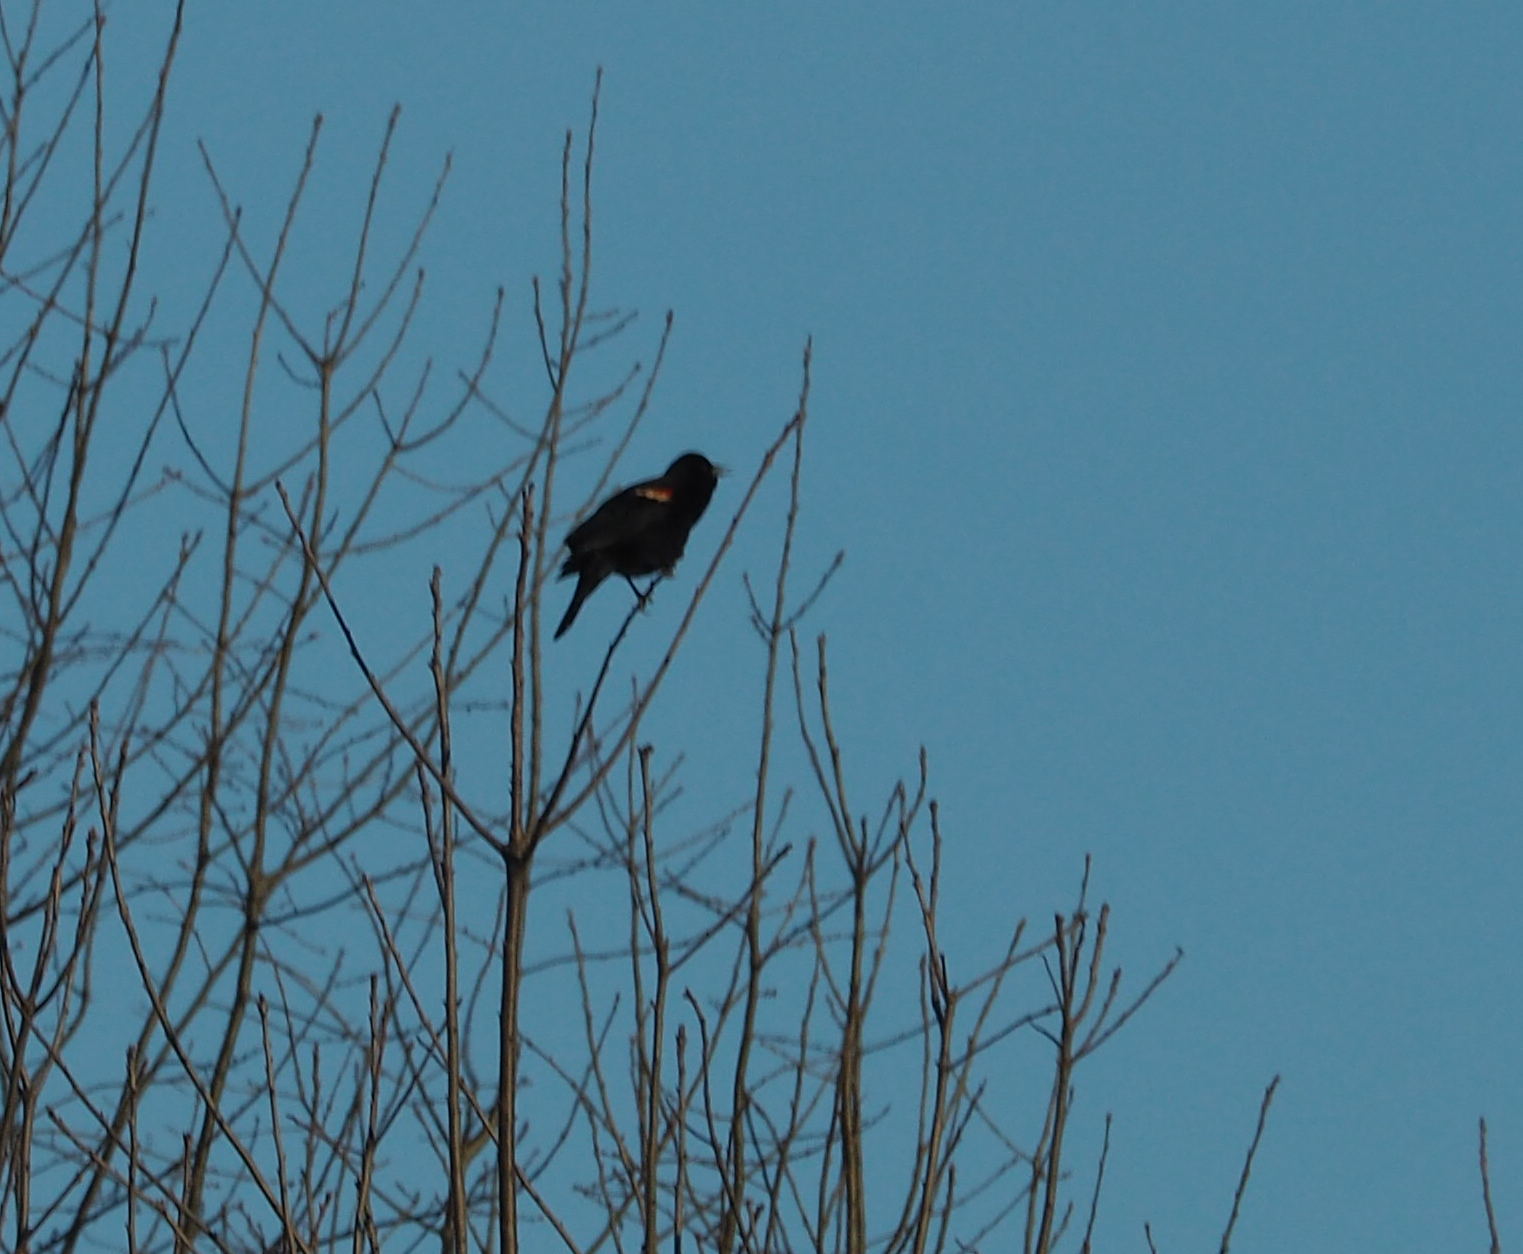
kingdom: Animalia
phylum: Chordata
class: Aves
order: Passeriformes
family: Icteridae
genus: Agelaius
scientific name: Agelaius phoeniceus
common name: Red-winged blackbird
